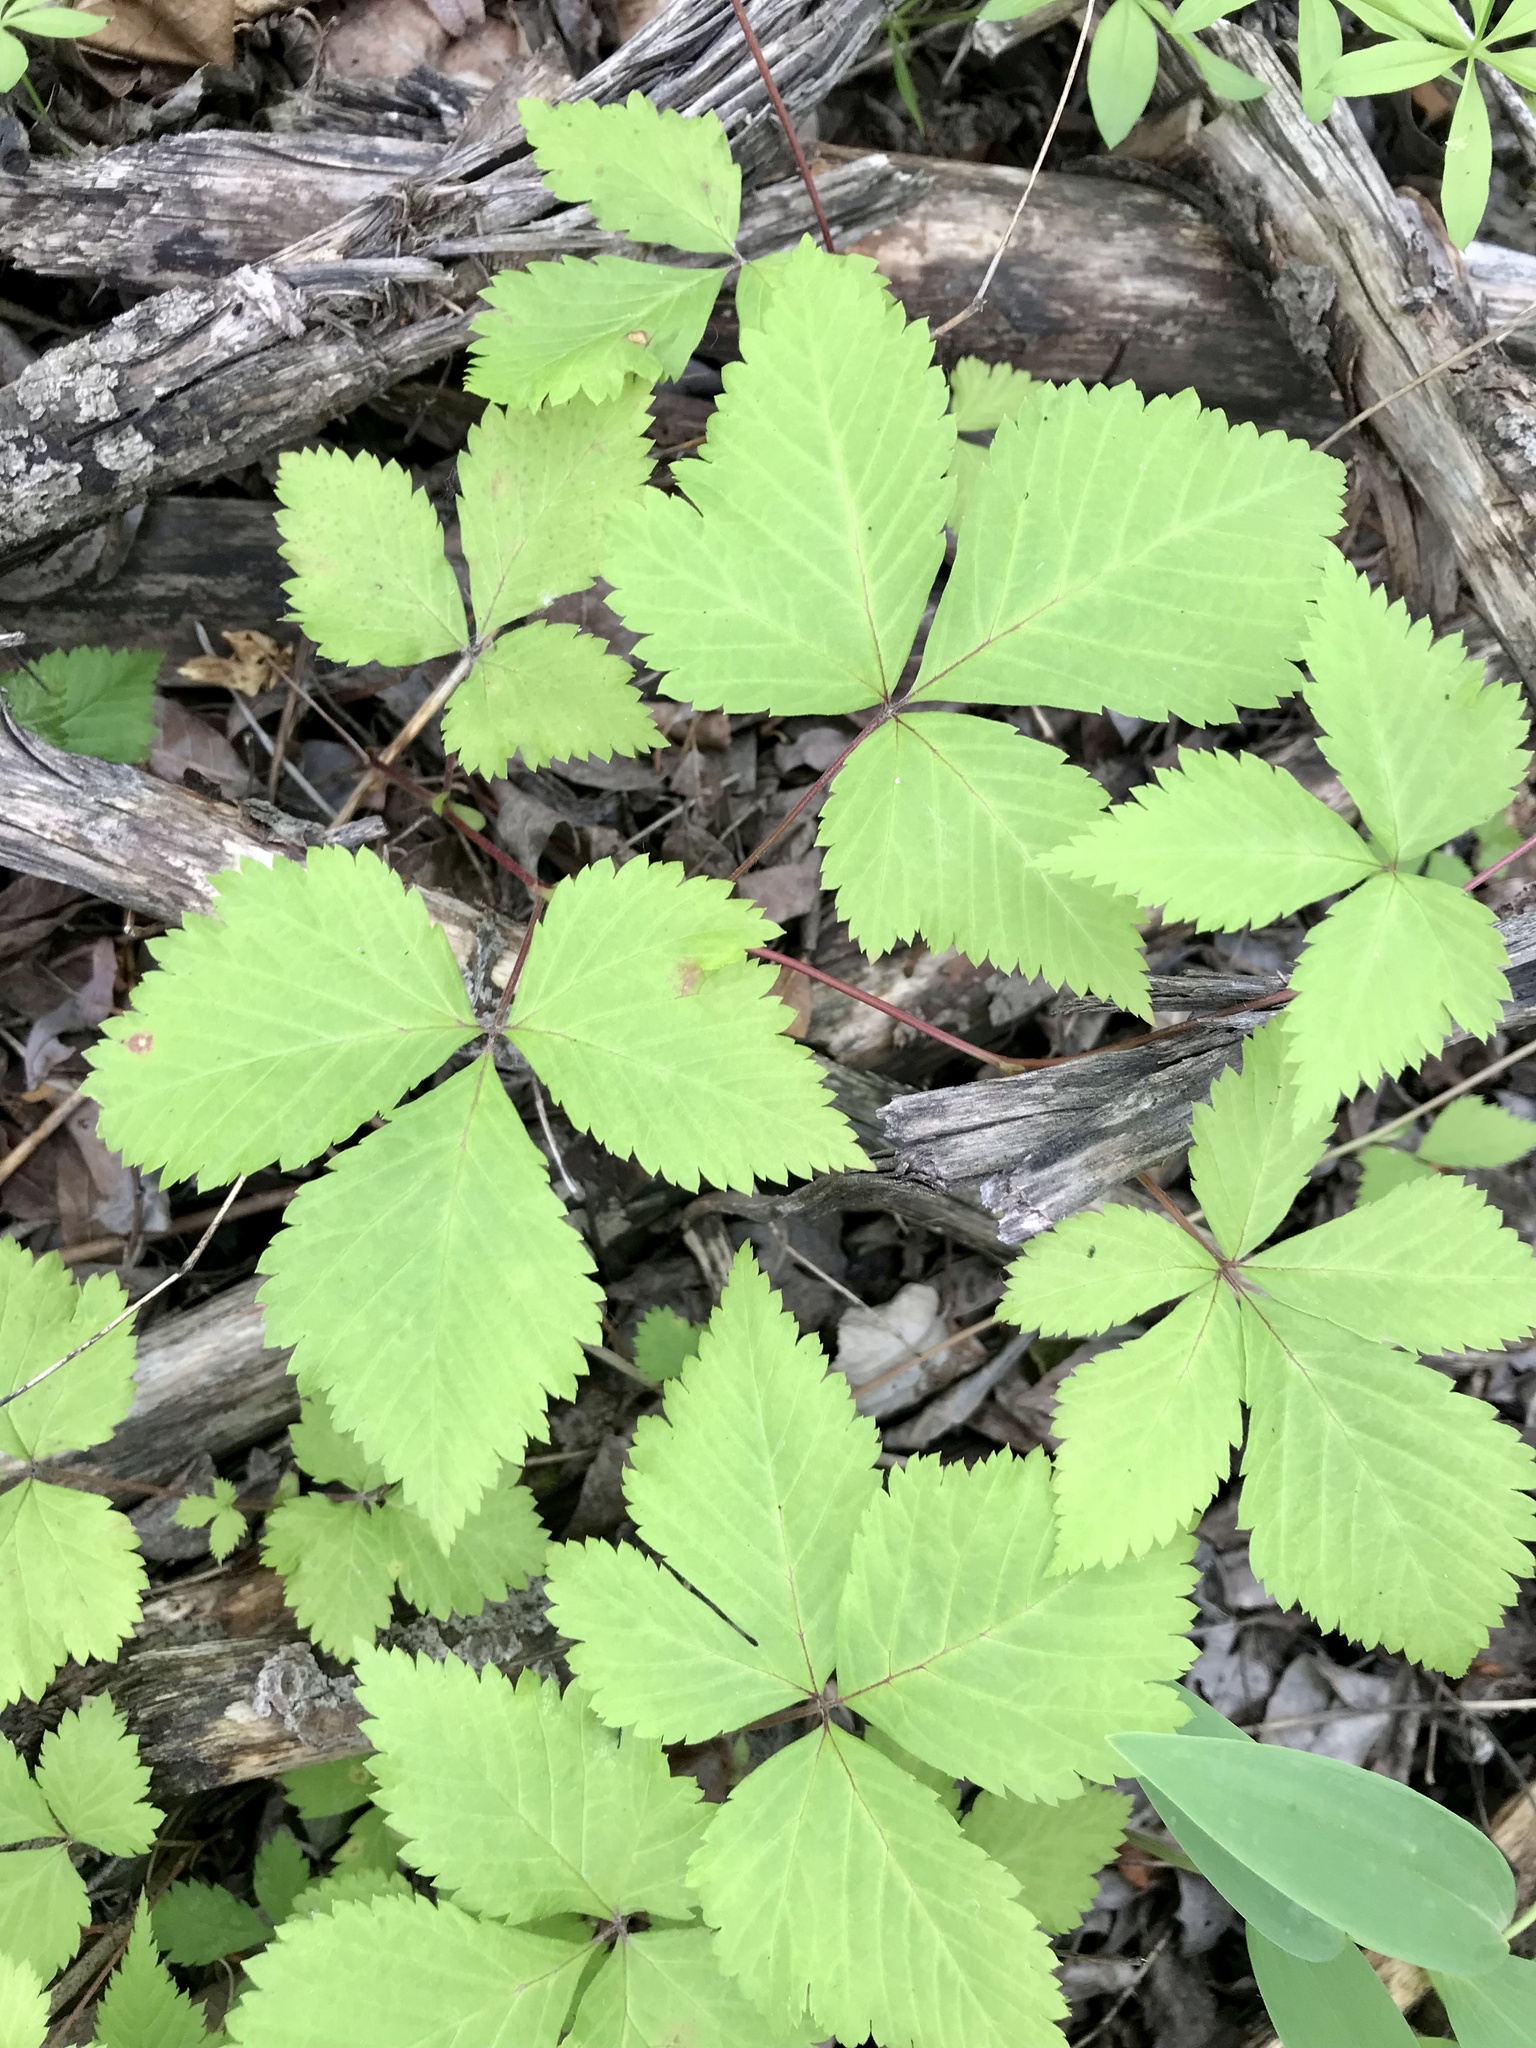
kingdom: Plantae
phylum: Tracheophyta
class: Magnoliopsida
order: Rosales
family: Rosaceae
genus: Rubus
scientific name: Rubus pubescens
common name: Dwarf raspberry
